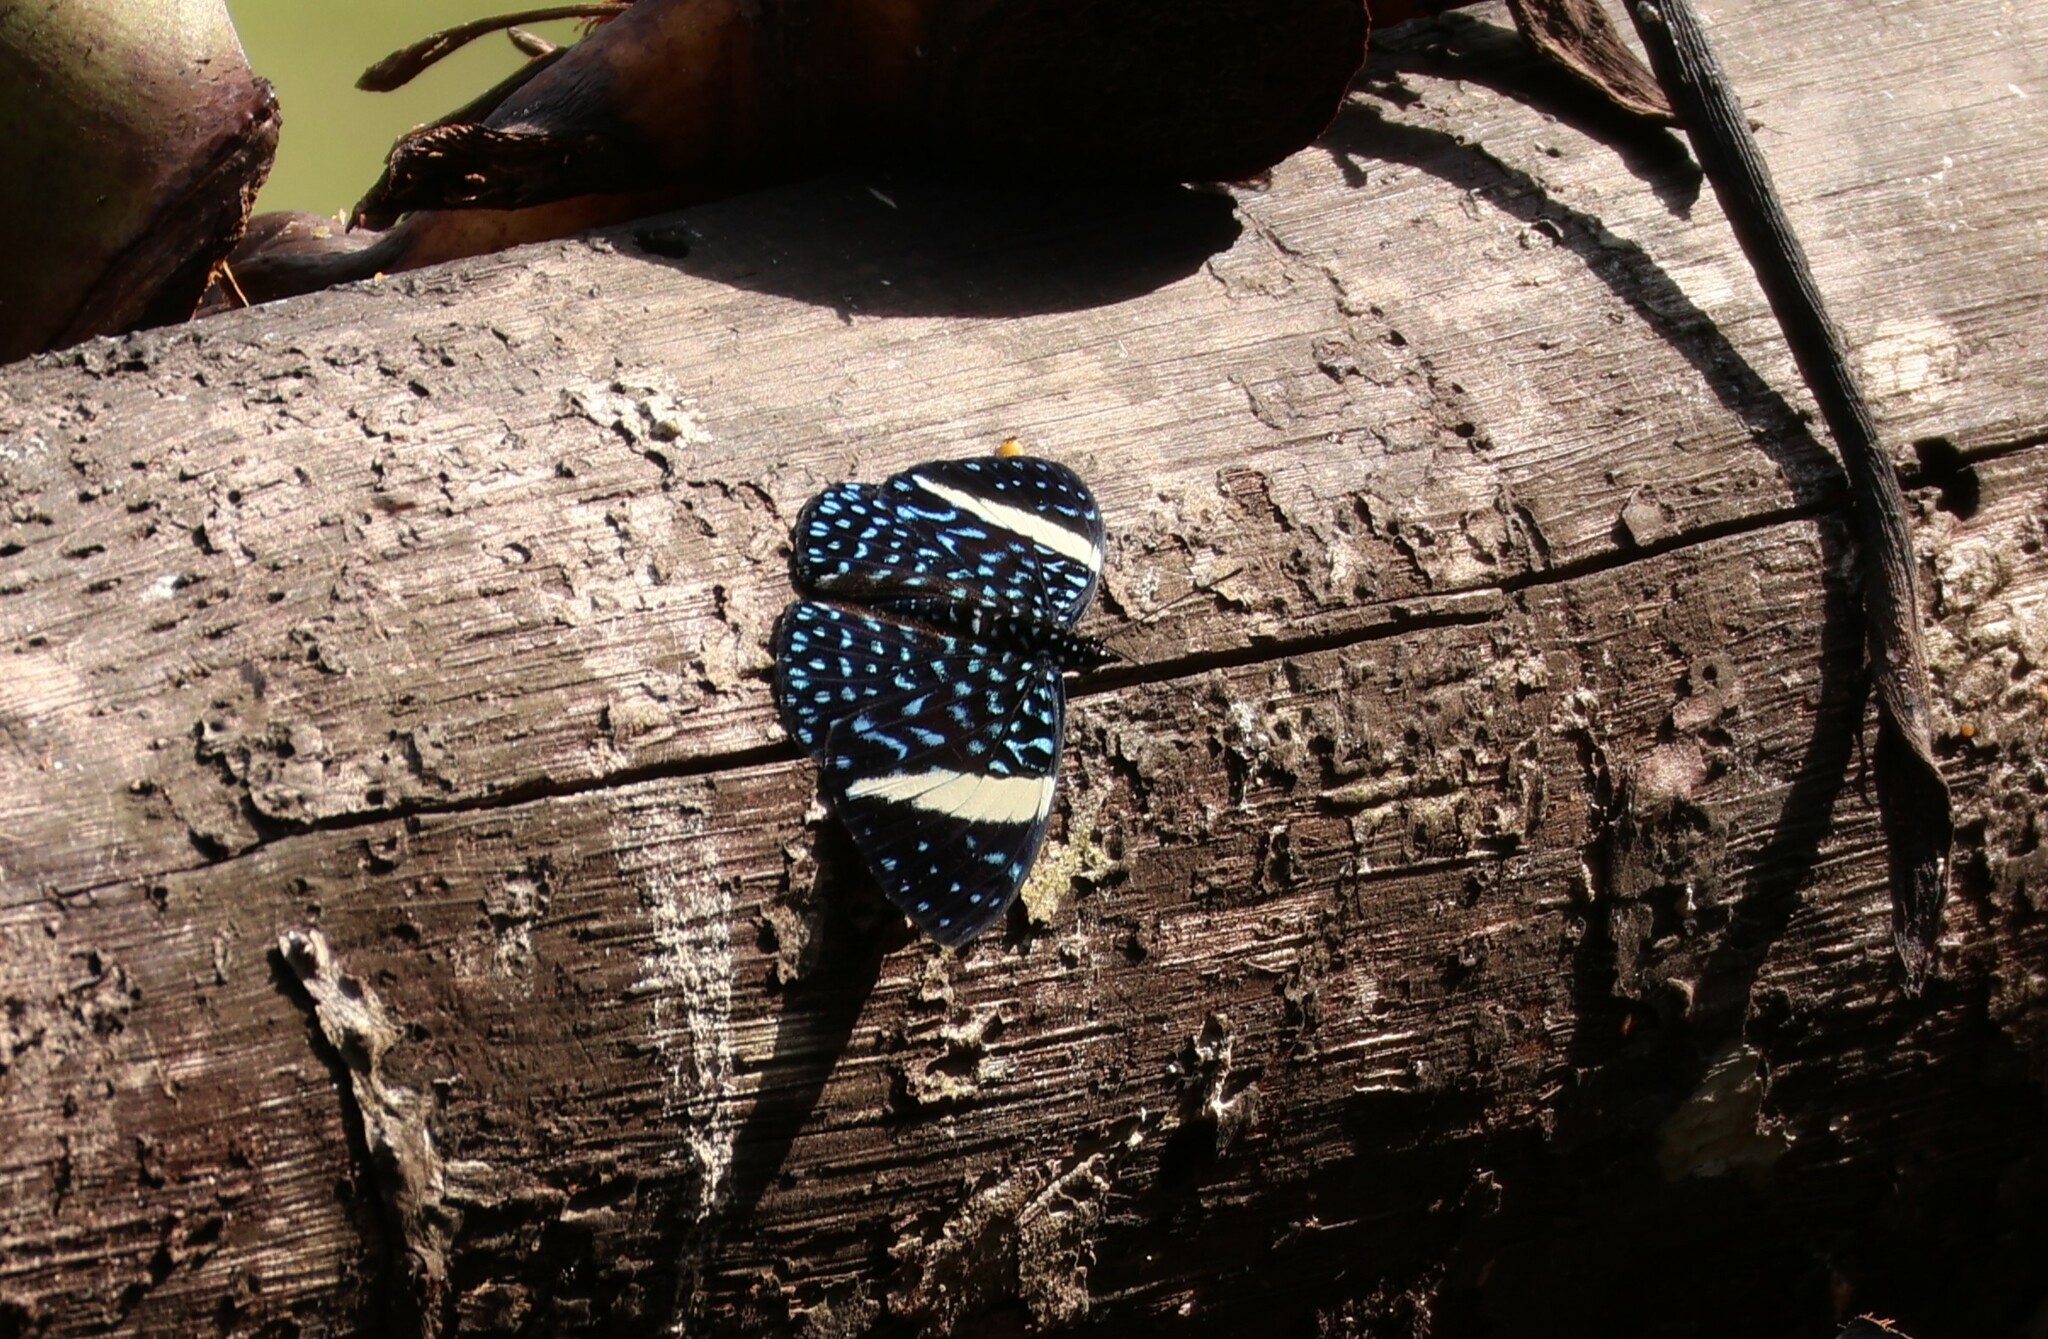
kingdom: Animalia
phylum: Arthropoda
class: Insecta
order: Lepidoptera
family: Nymphalidae
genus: Hamadryas
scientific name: Hamadryas laodamia
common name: Starry night cracker
